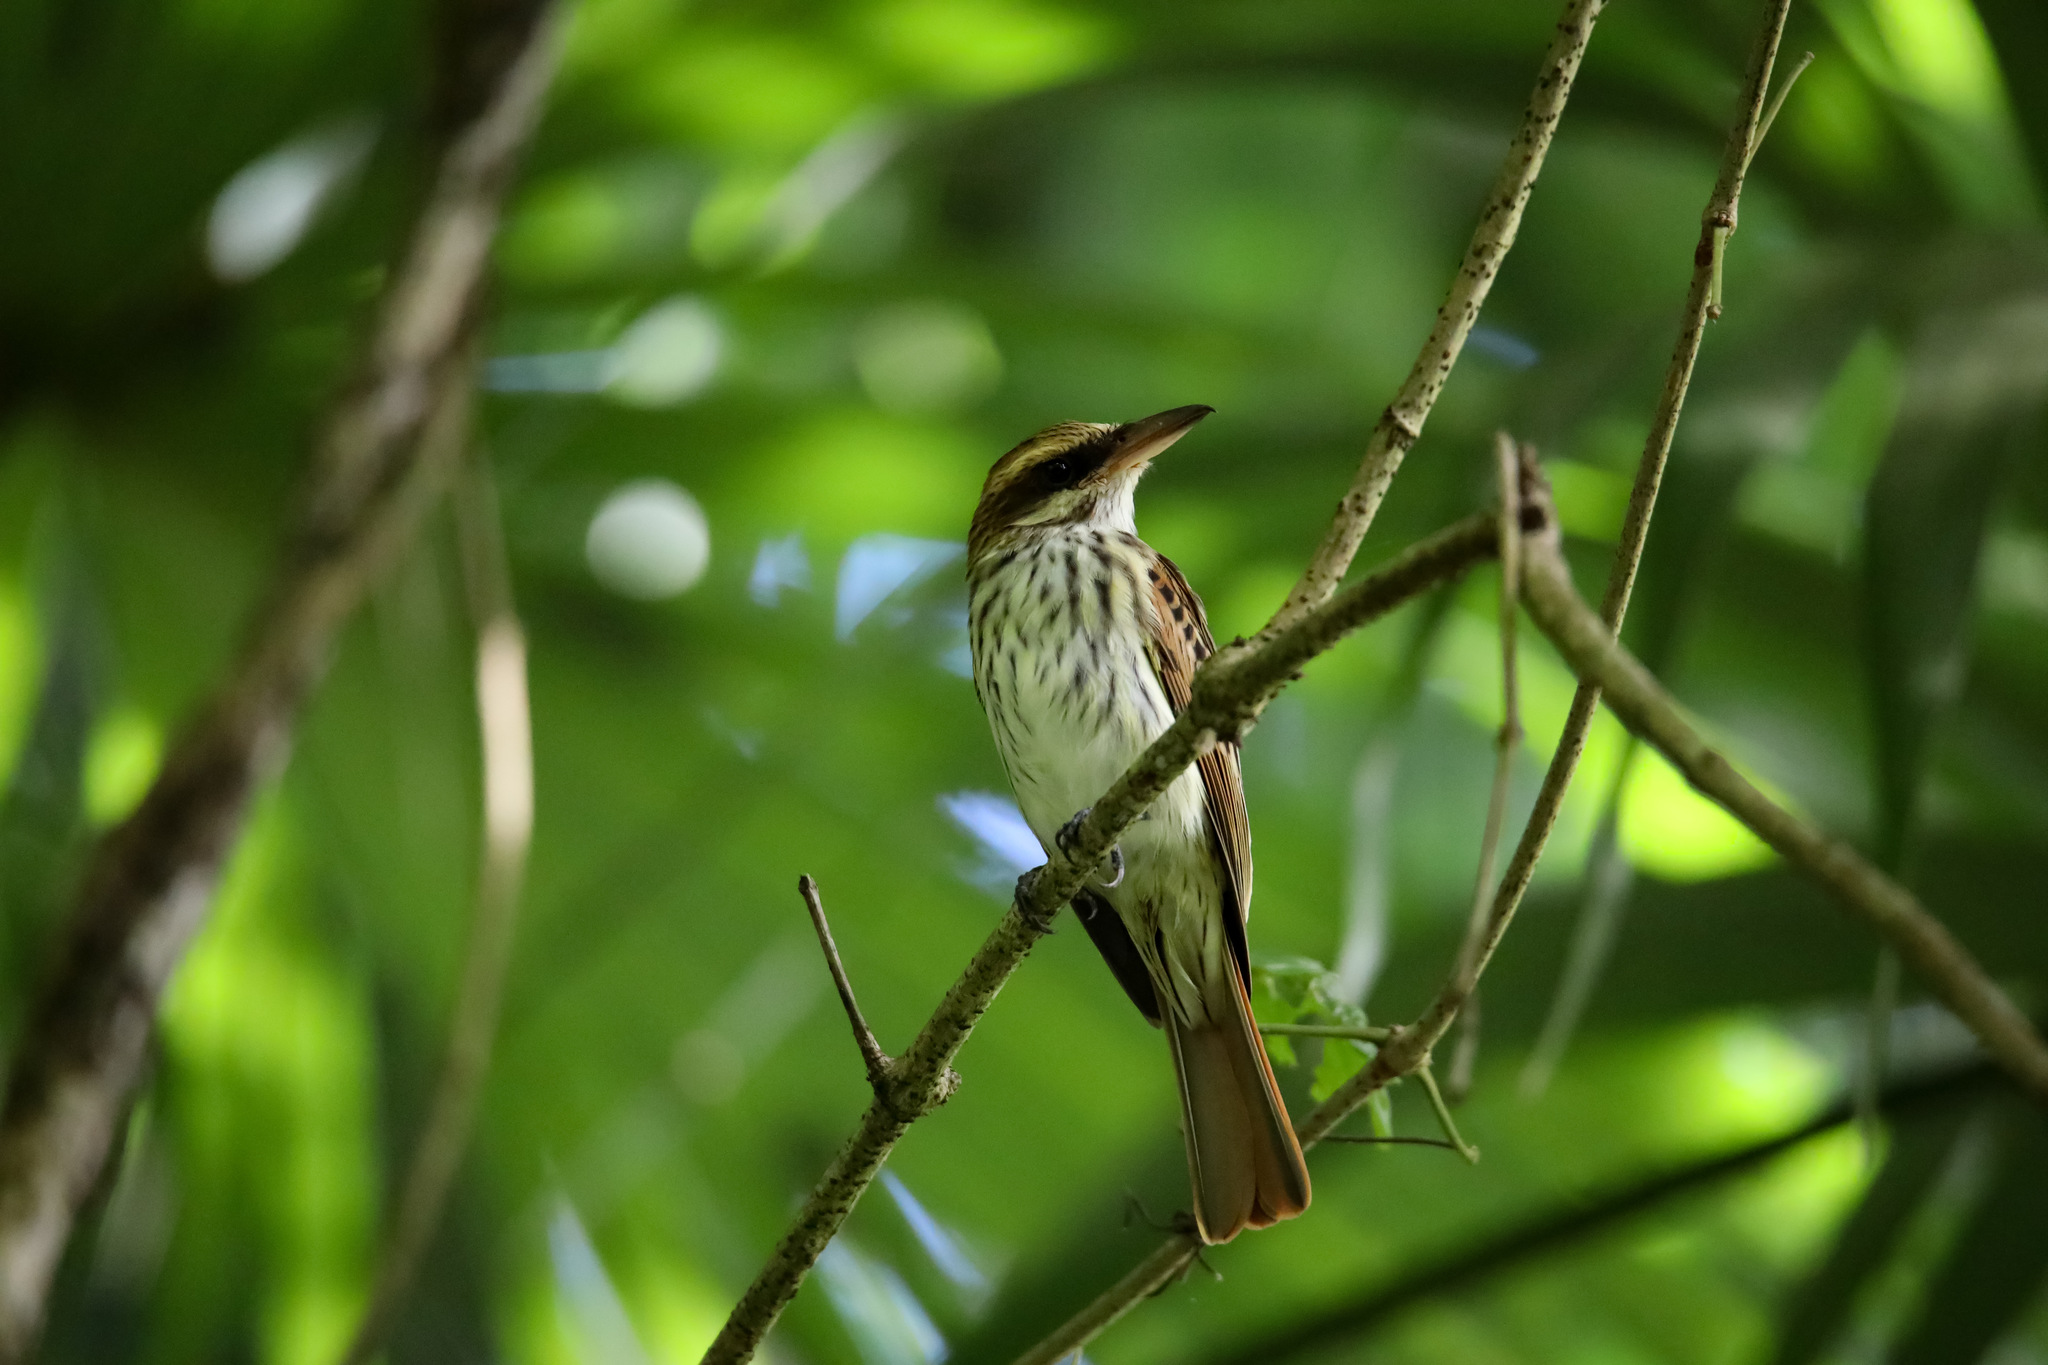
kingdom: Animalia
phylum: Chordata
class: Aves
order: Passeriformes
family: Tyrannidae
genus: Myiodynastes
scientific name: Myiodynastes maculatus
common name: Streaked flycatcher
